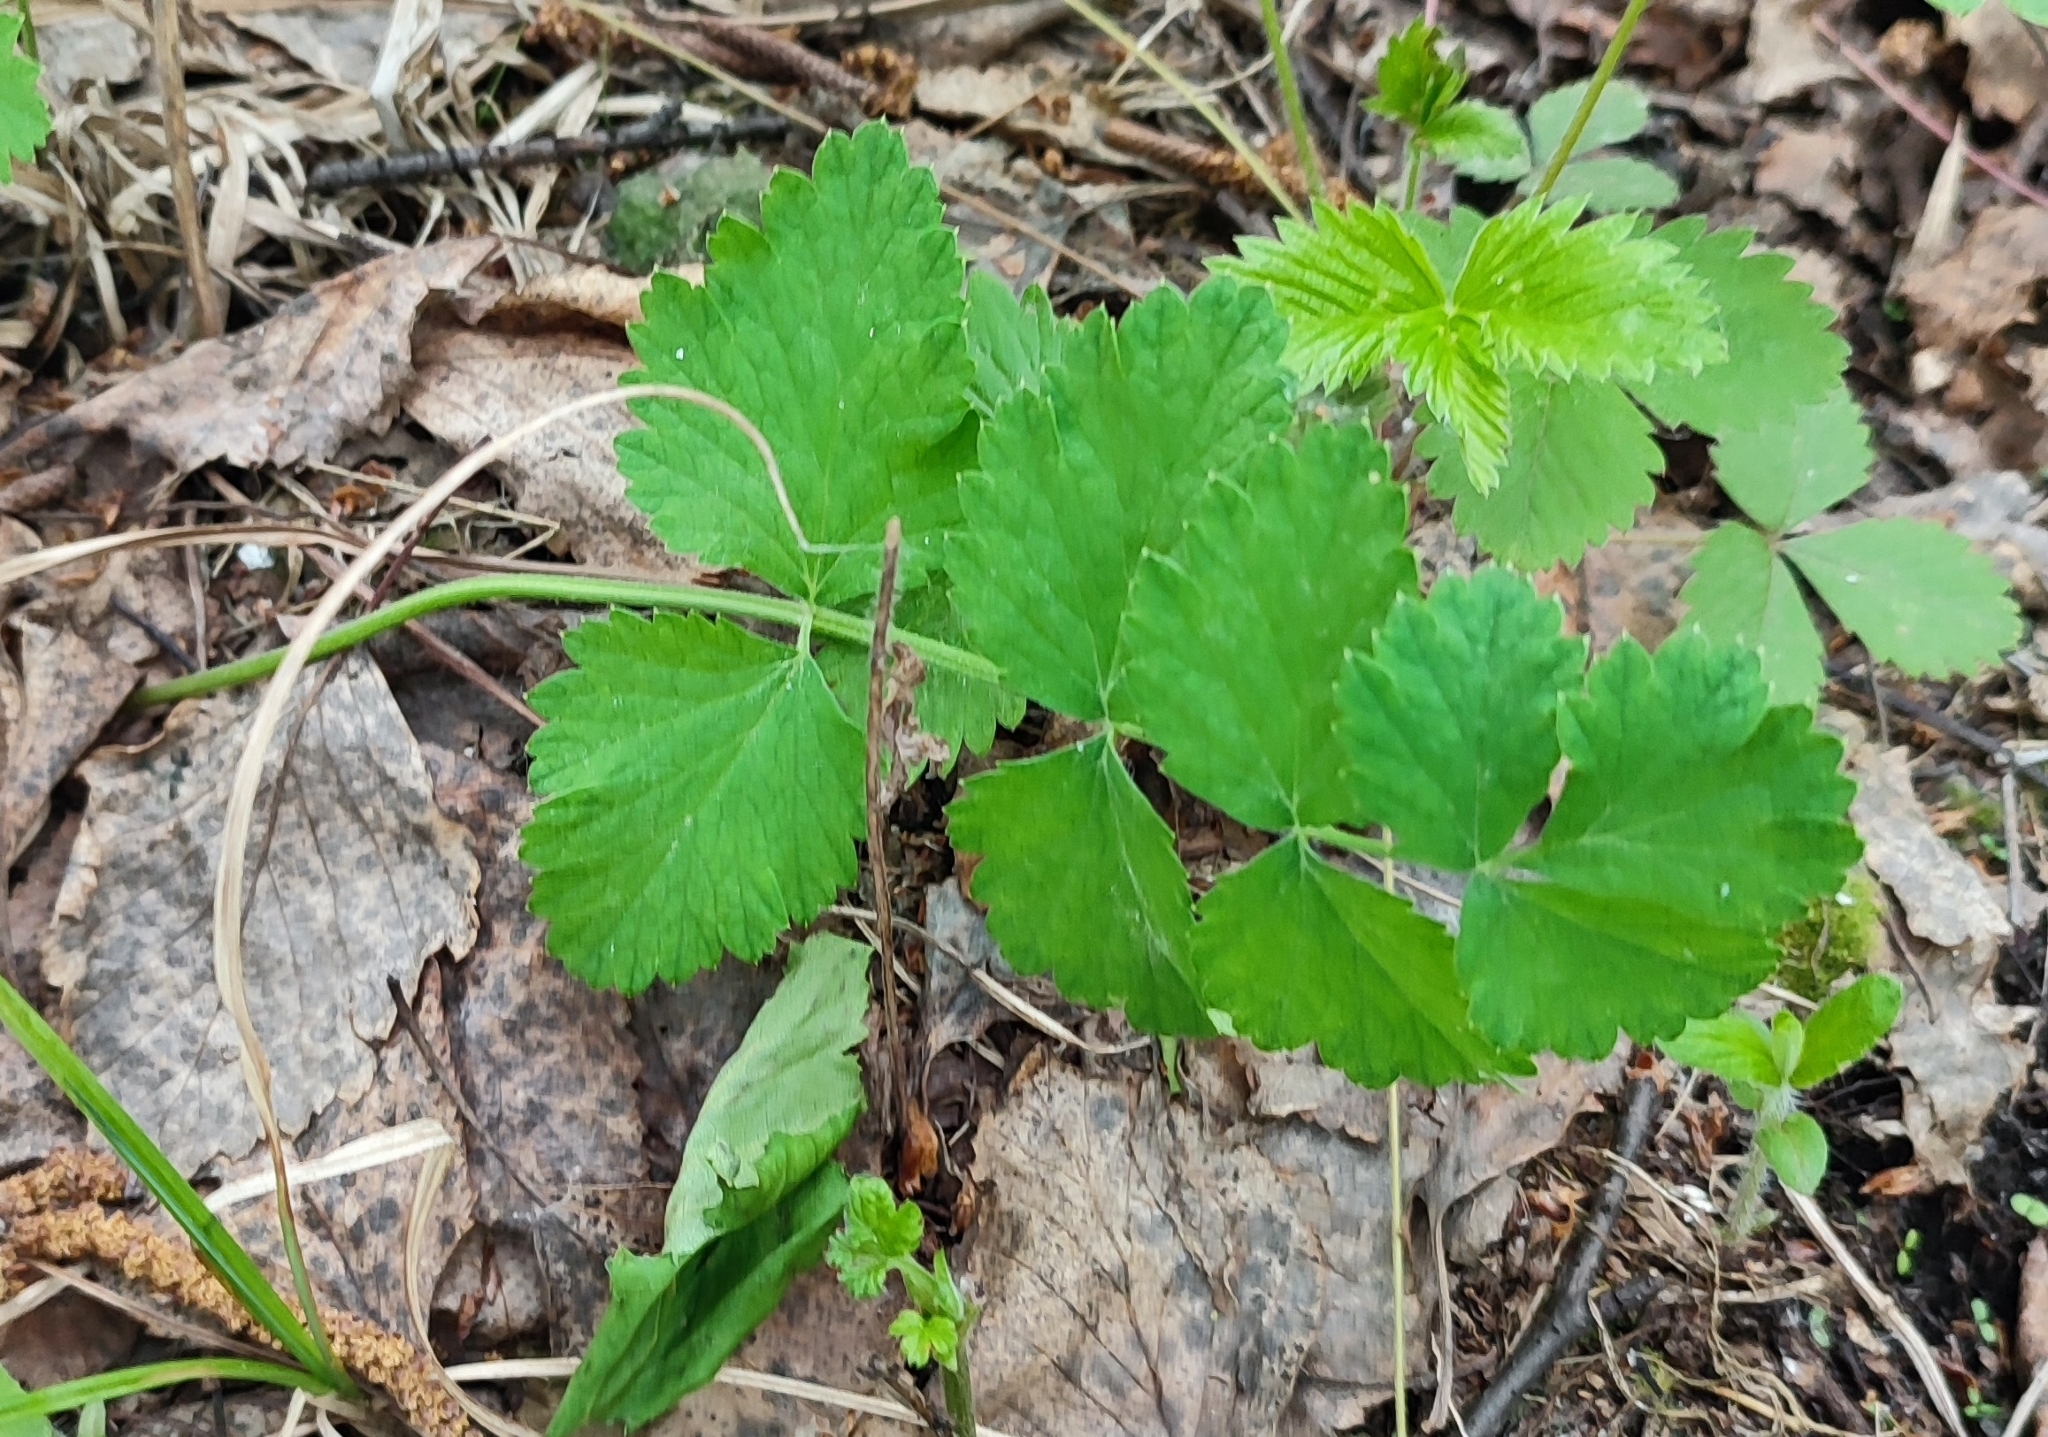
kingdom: Plantae
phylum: Tracheophyta
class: Magnoliopsida
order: Apiales
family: Apiaceae
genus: Pimpinella
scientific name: Pimpinella saxifraga
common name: Burnet-saxifrage
